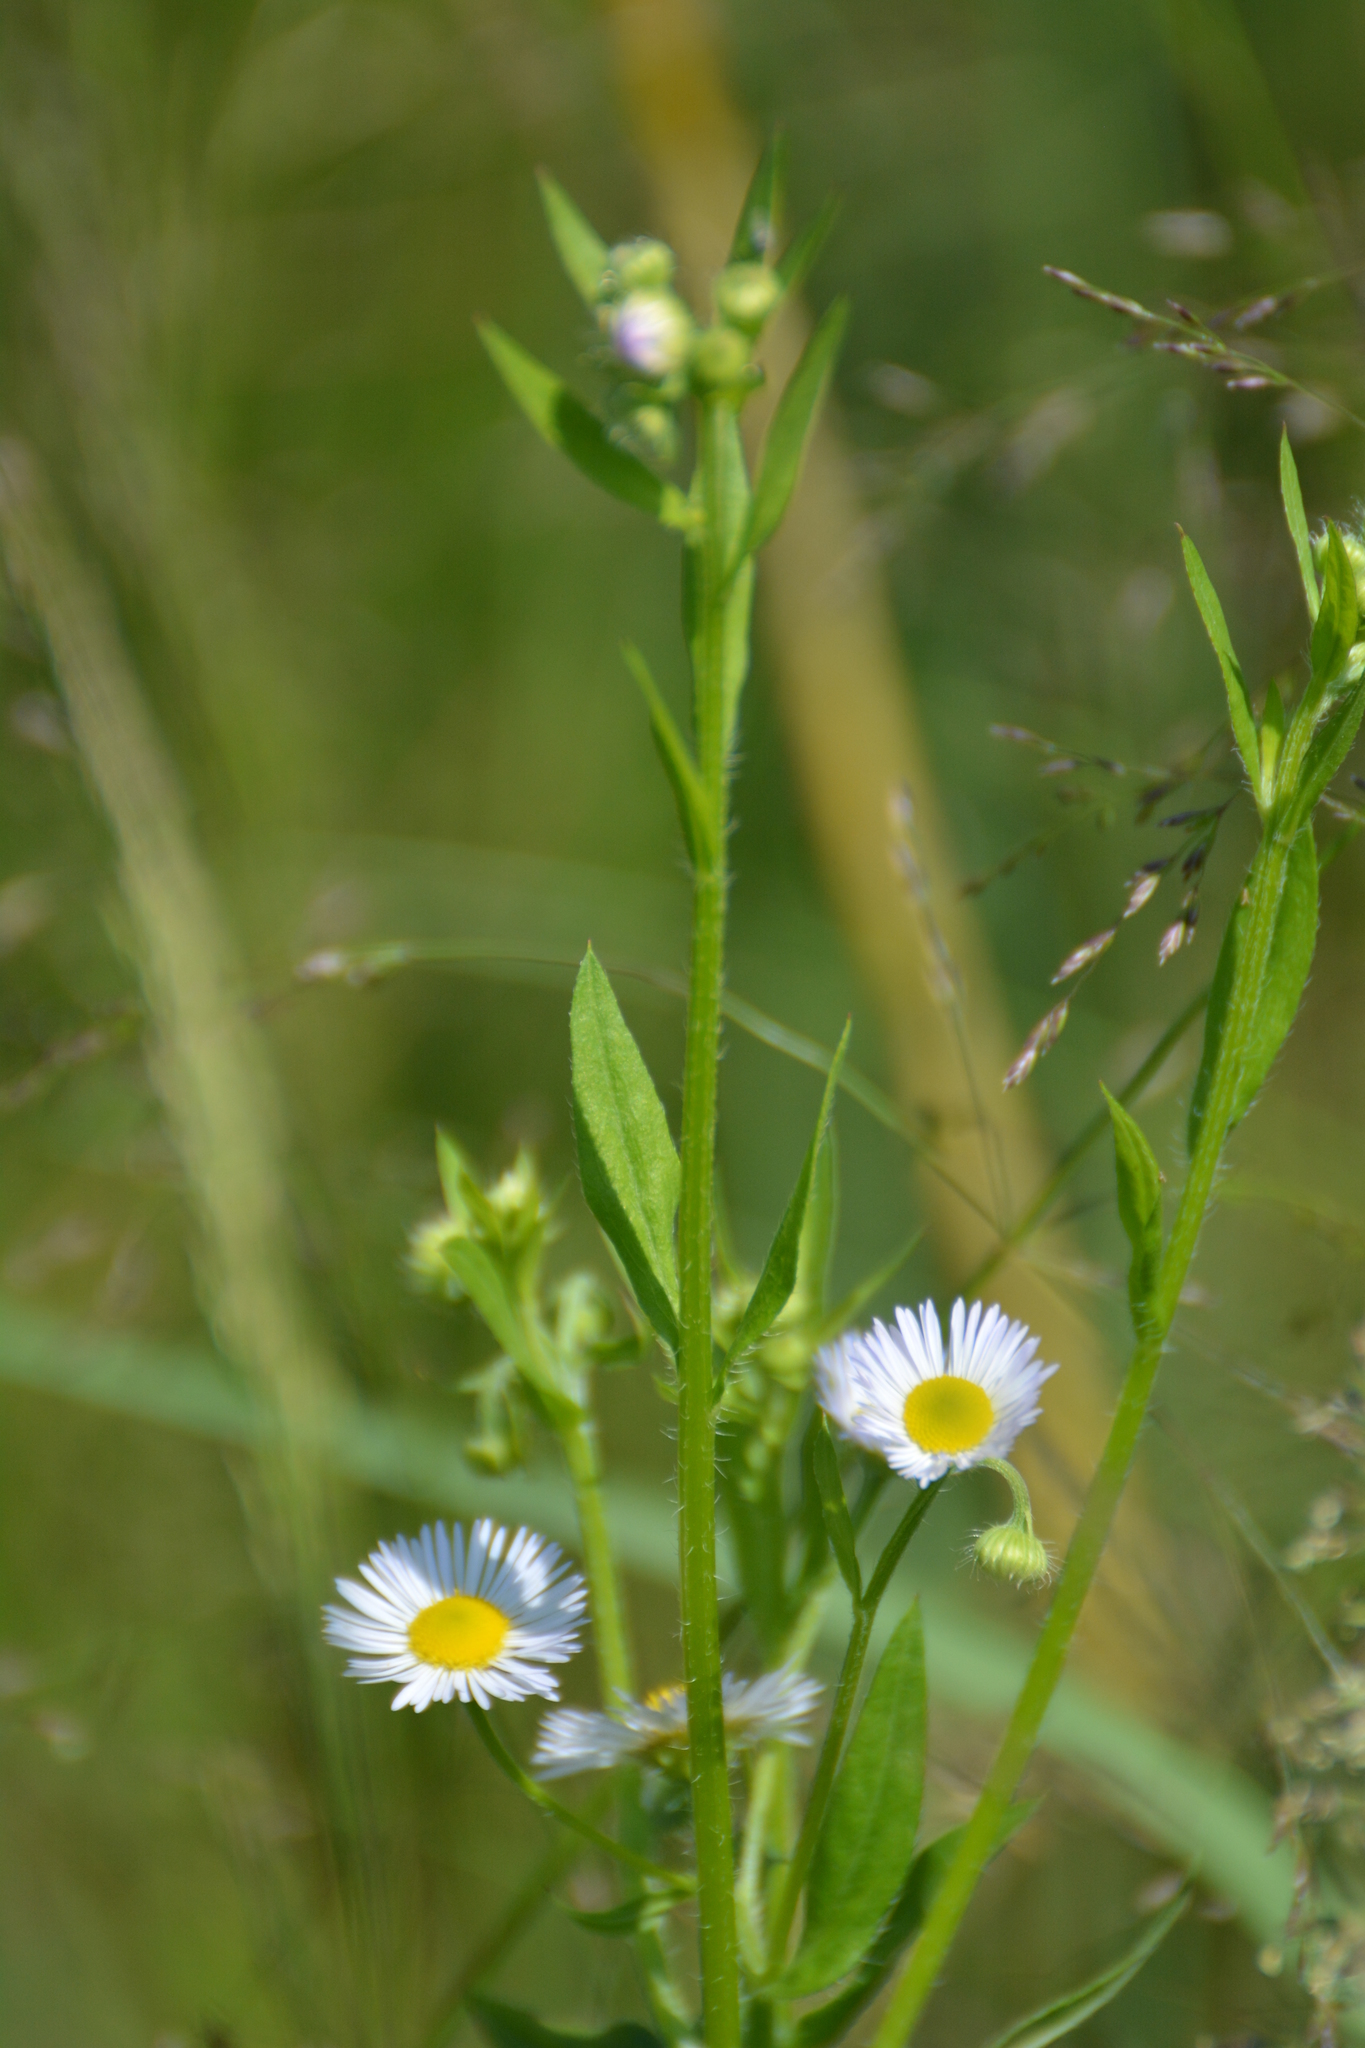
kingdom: Plantae
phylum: Tracheophyta
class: Magnoliopsida
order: Asterales
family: Asteraceae
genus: Erigeron
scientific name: Erigeron annuus
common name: Tall fleabane
